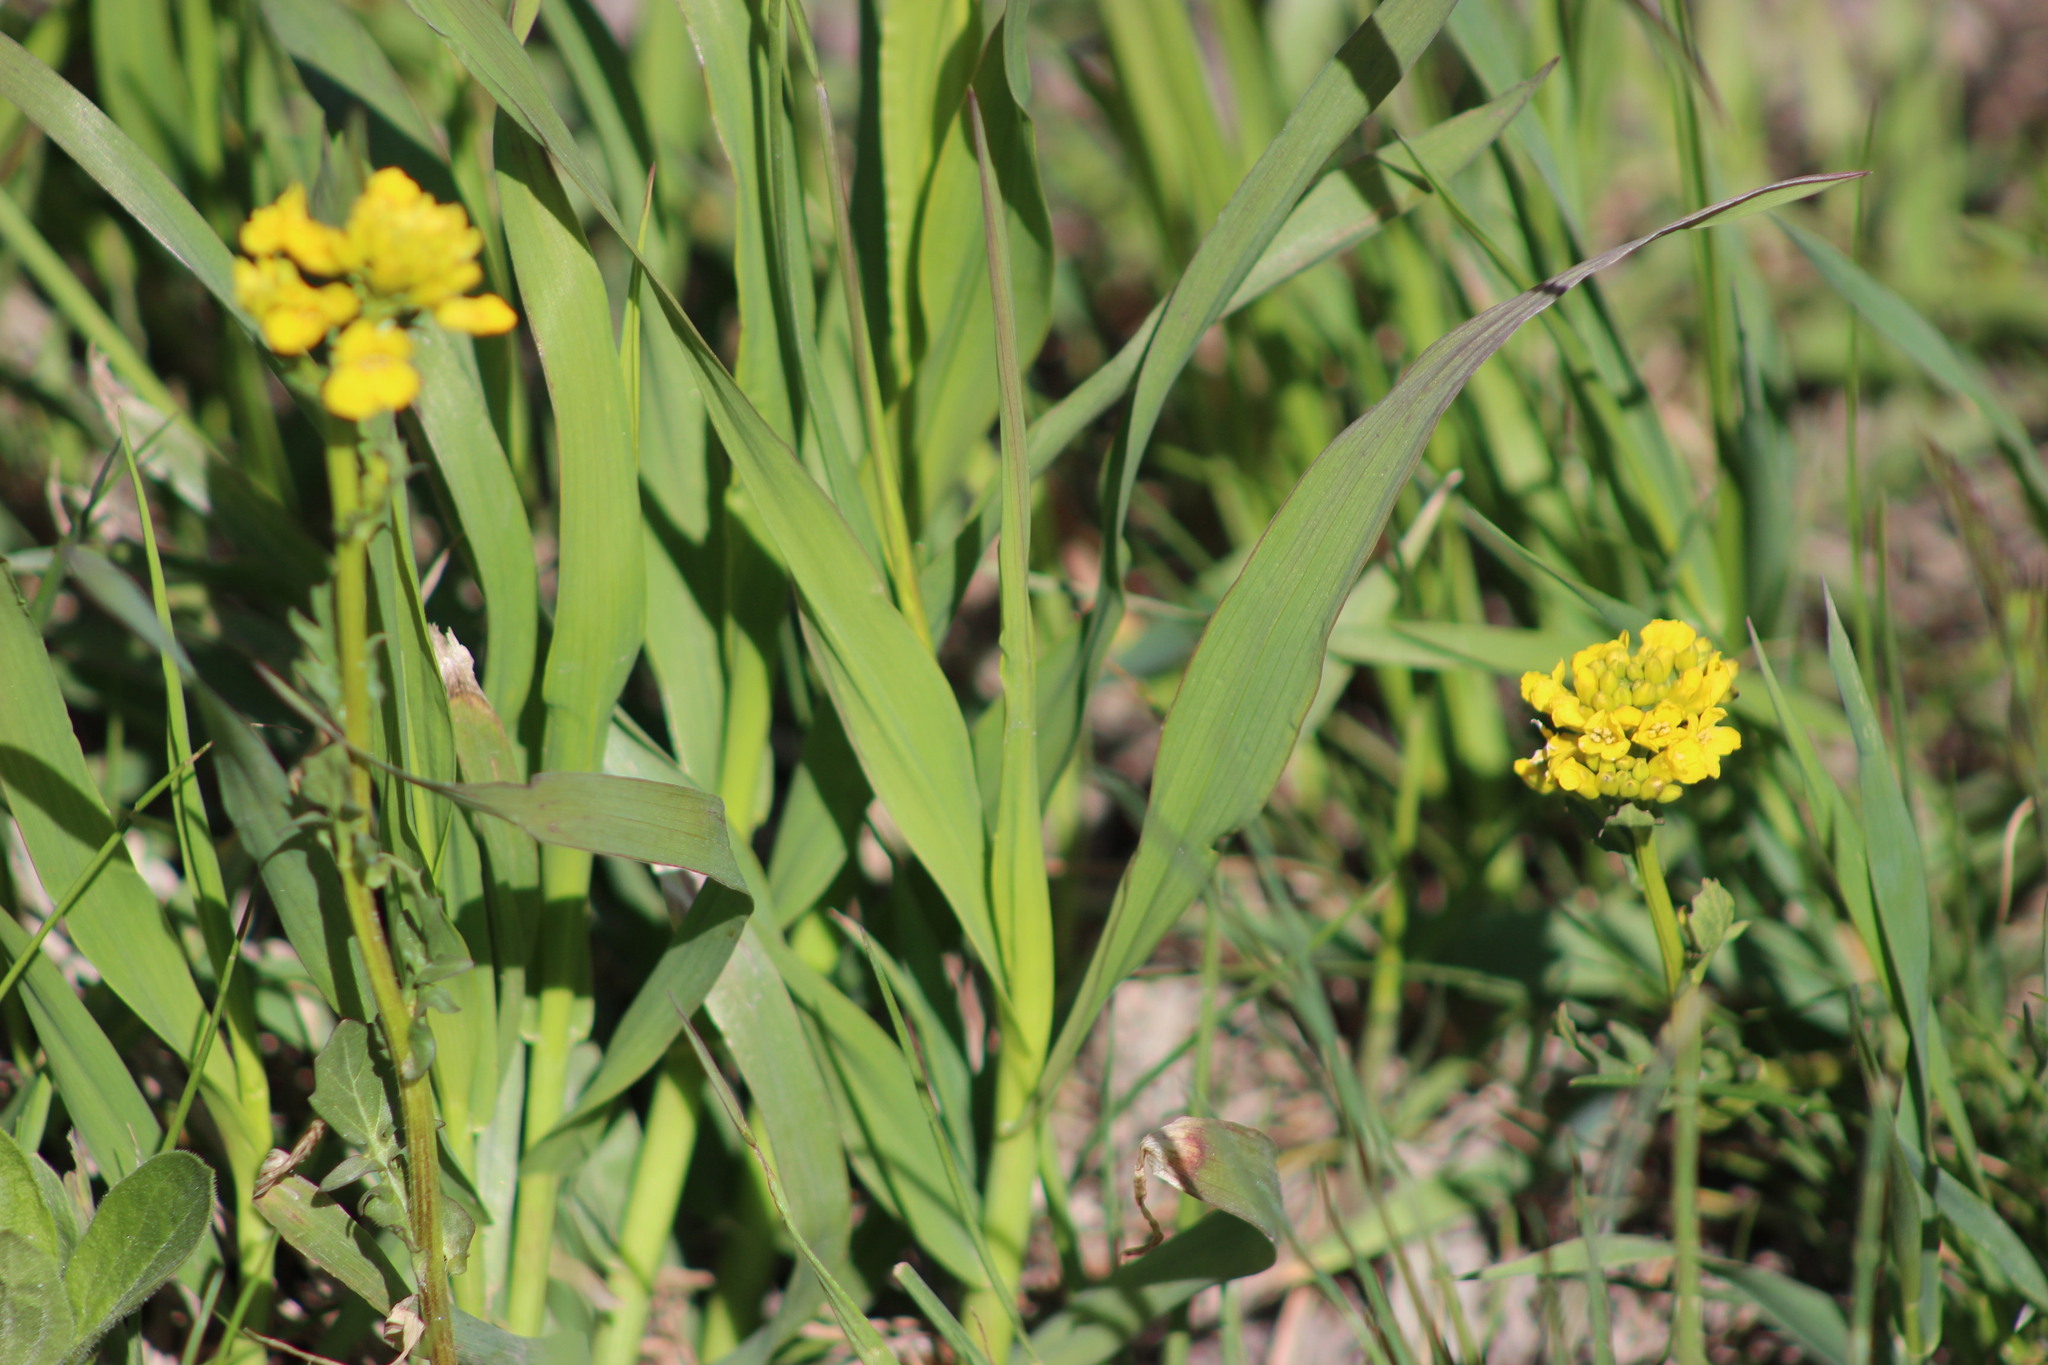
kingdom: Plantae
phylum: Tracheophyta
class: Magnoliopsida
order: Brassicales
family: Brassicaceae
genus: Barbarea
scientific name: Barbarea vulgaris
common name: Cressy-greens
